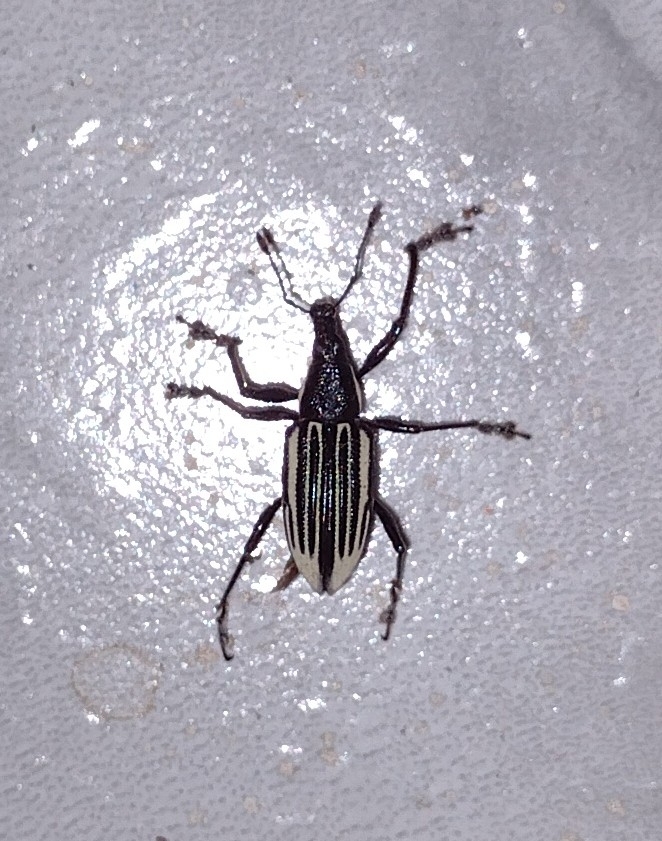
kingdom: Animalia
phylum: Arthropoda
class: Insecta
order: Coleoptera
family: Curculionidae
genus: Diaprepes
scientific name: Diaprepes abbreviatus
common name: Root weevil
